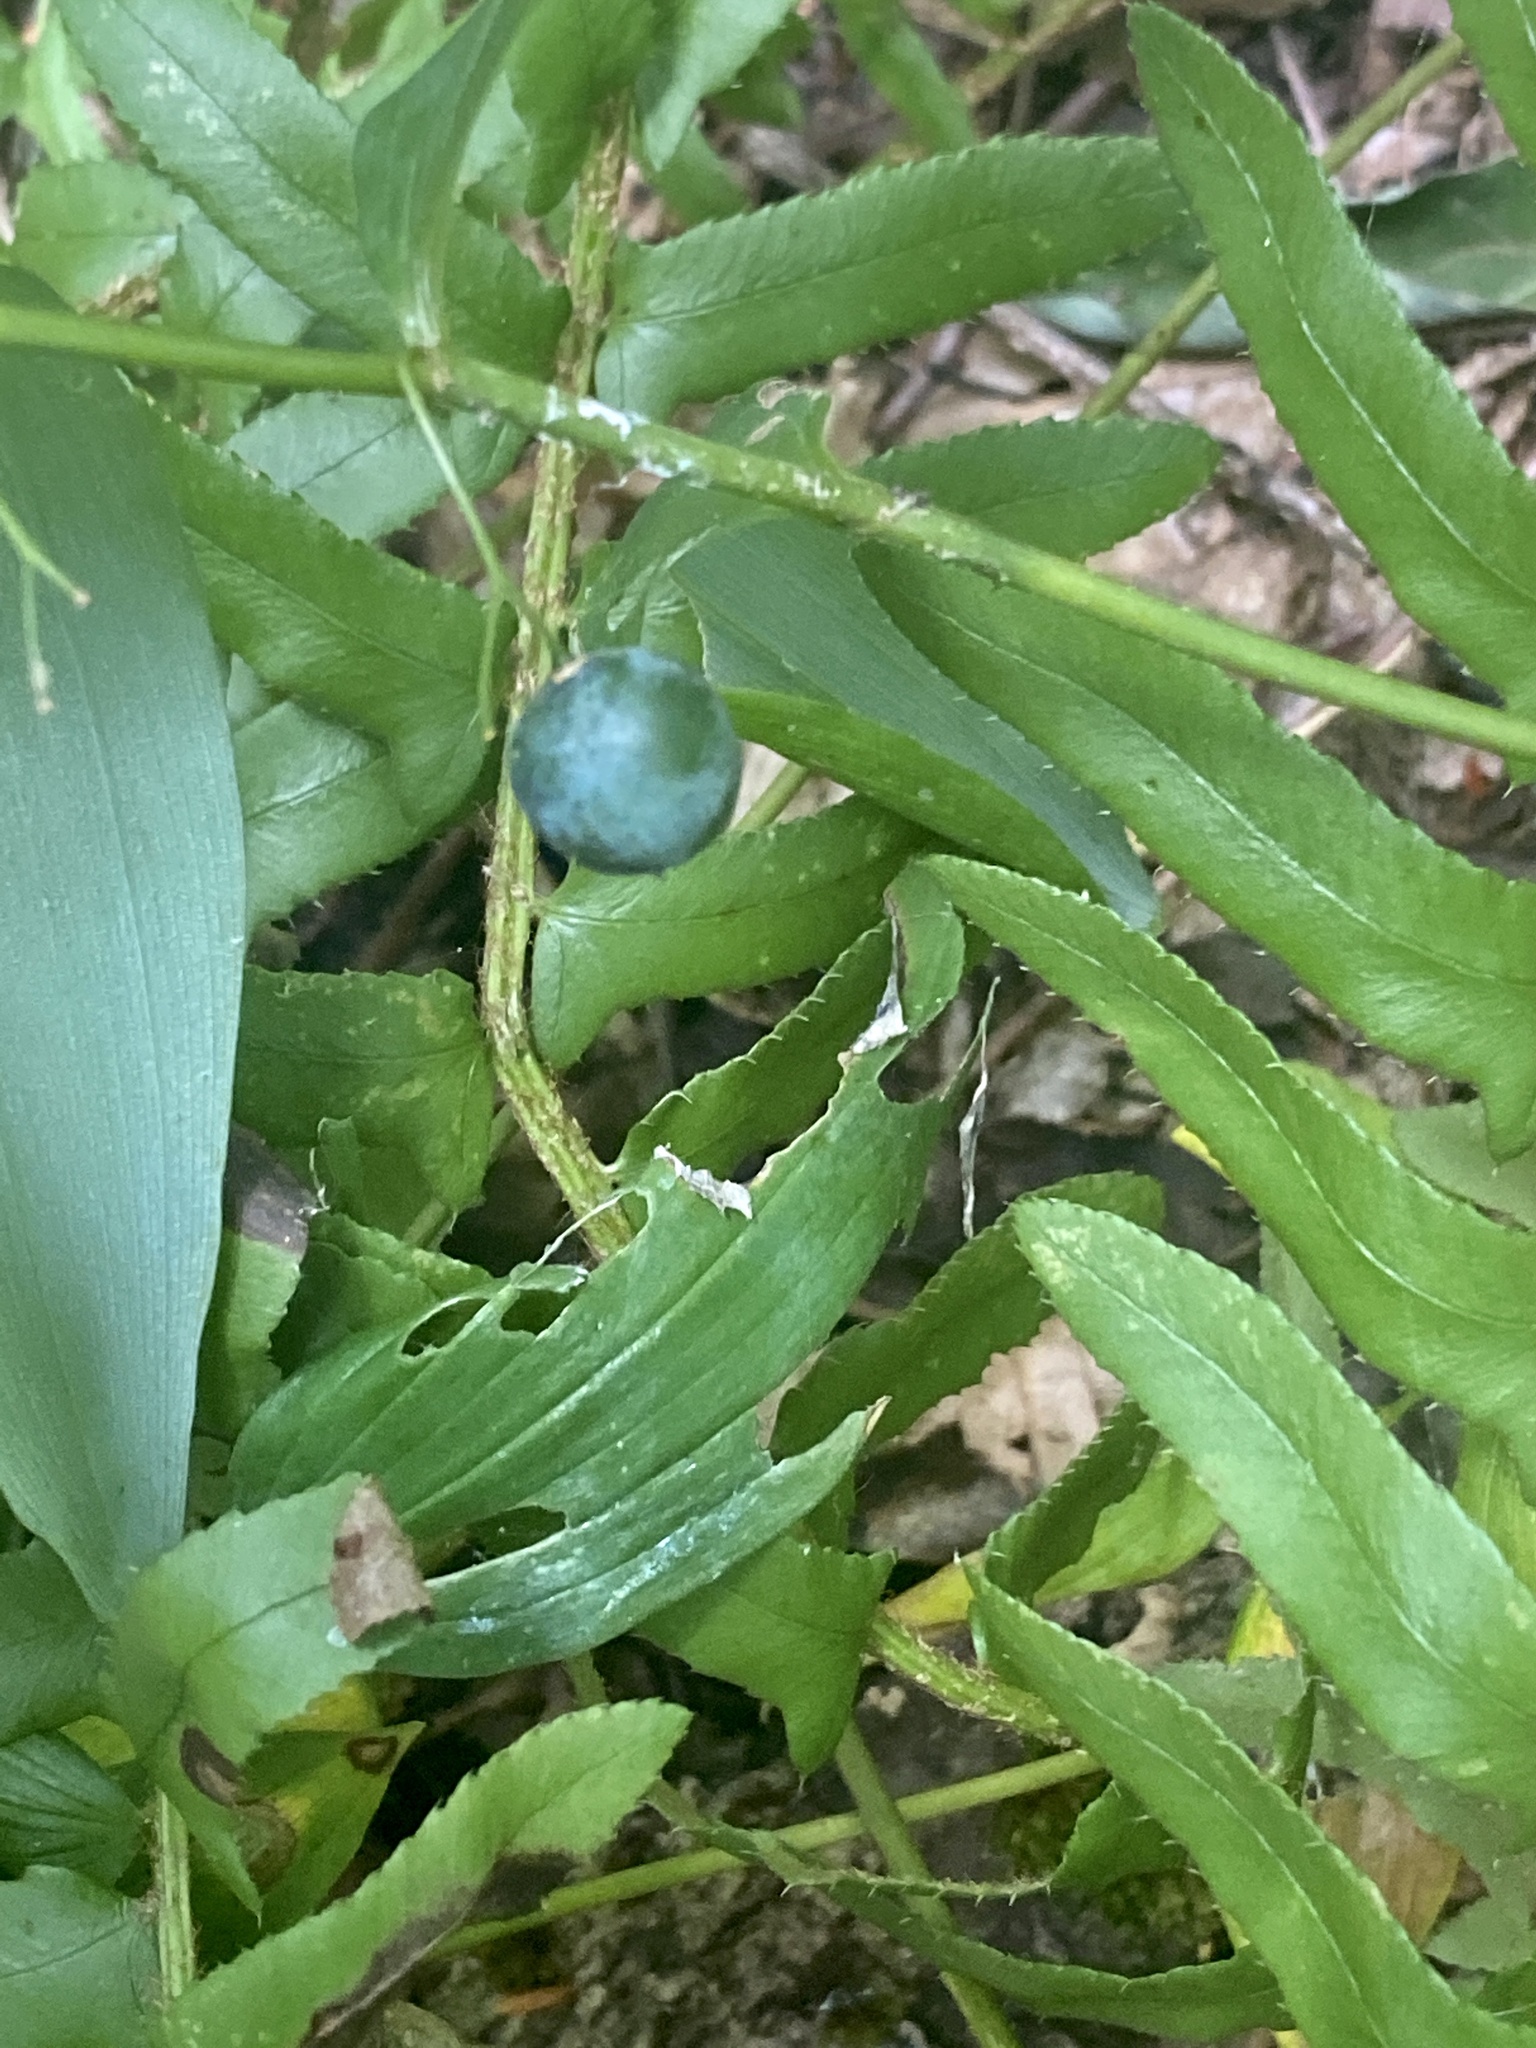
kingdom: Plantae
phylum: Tracheophyta
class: Liliopsida
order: Asparagales
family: Asparagaceae
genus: Polygonatum
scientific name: Polygonatum pubescens
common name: Downy solomon's seal
